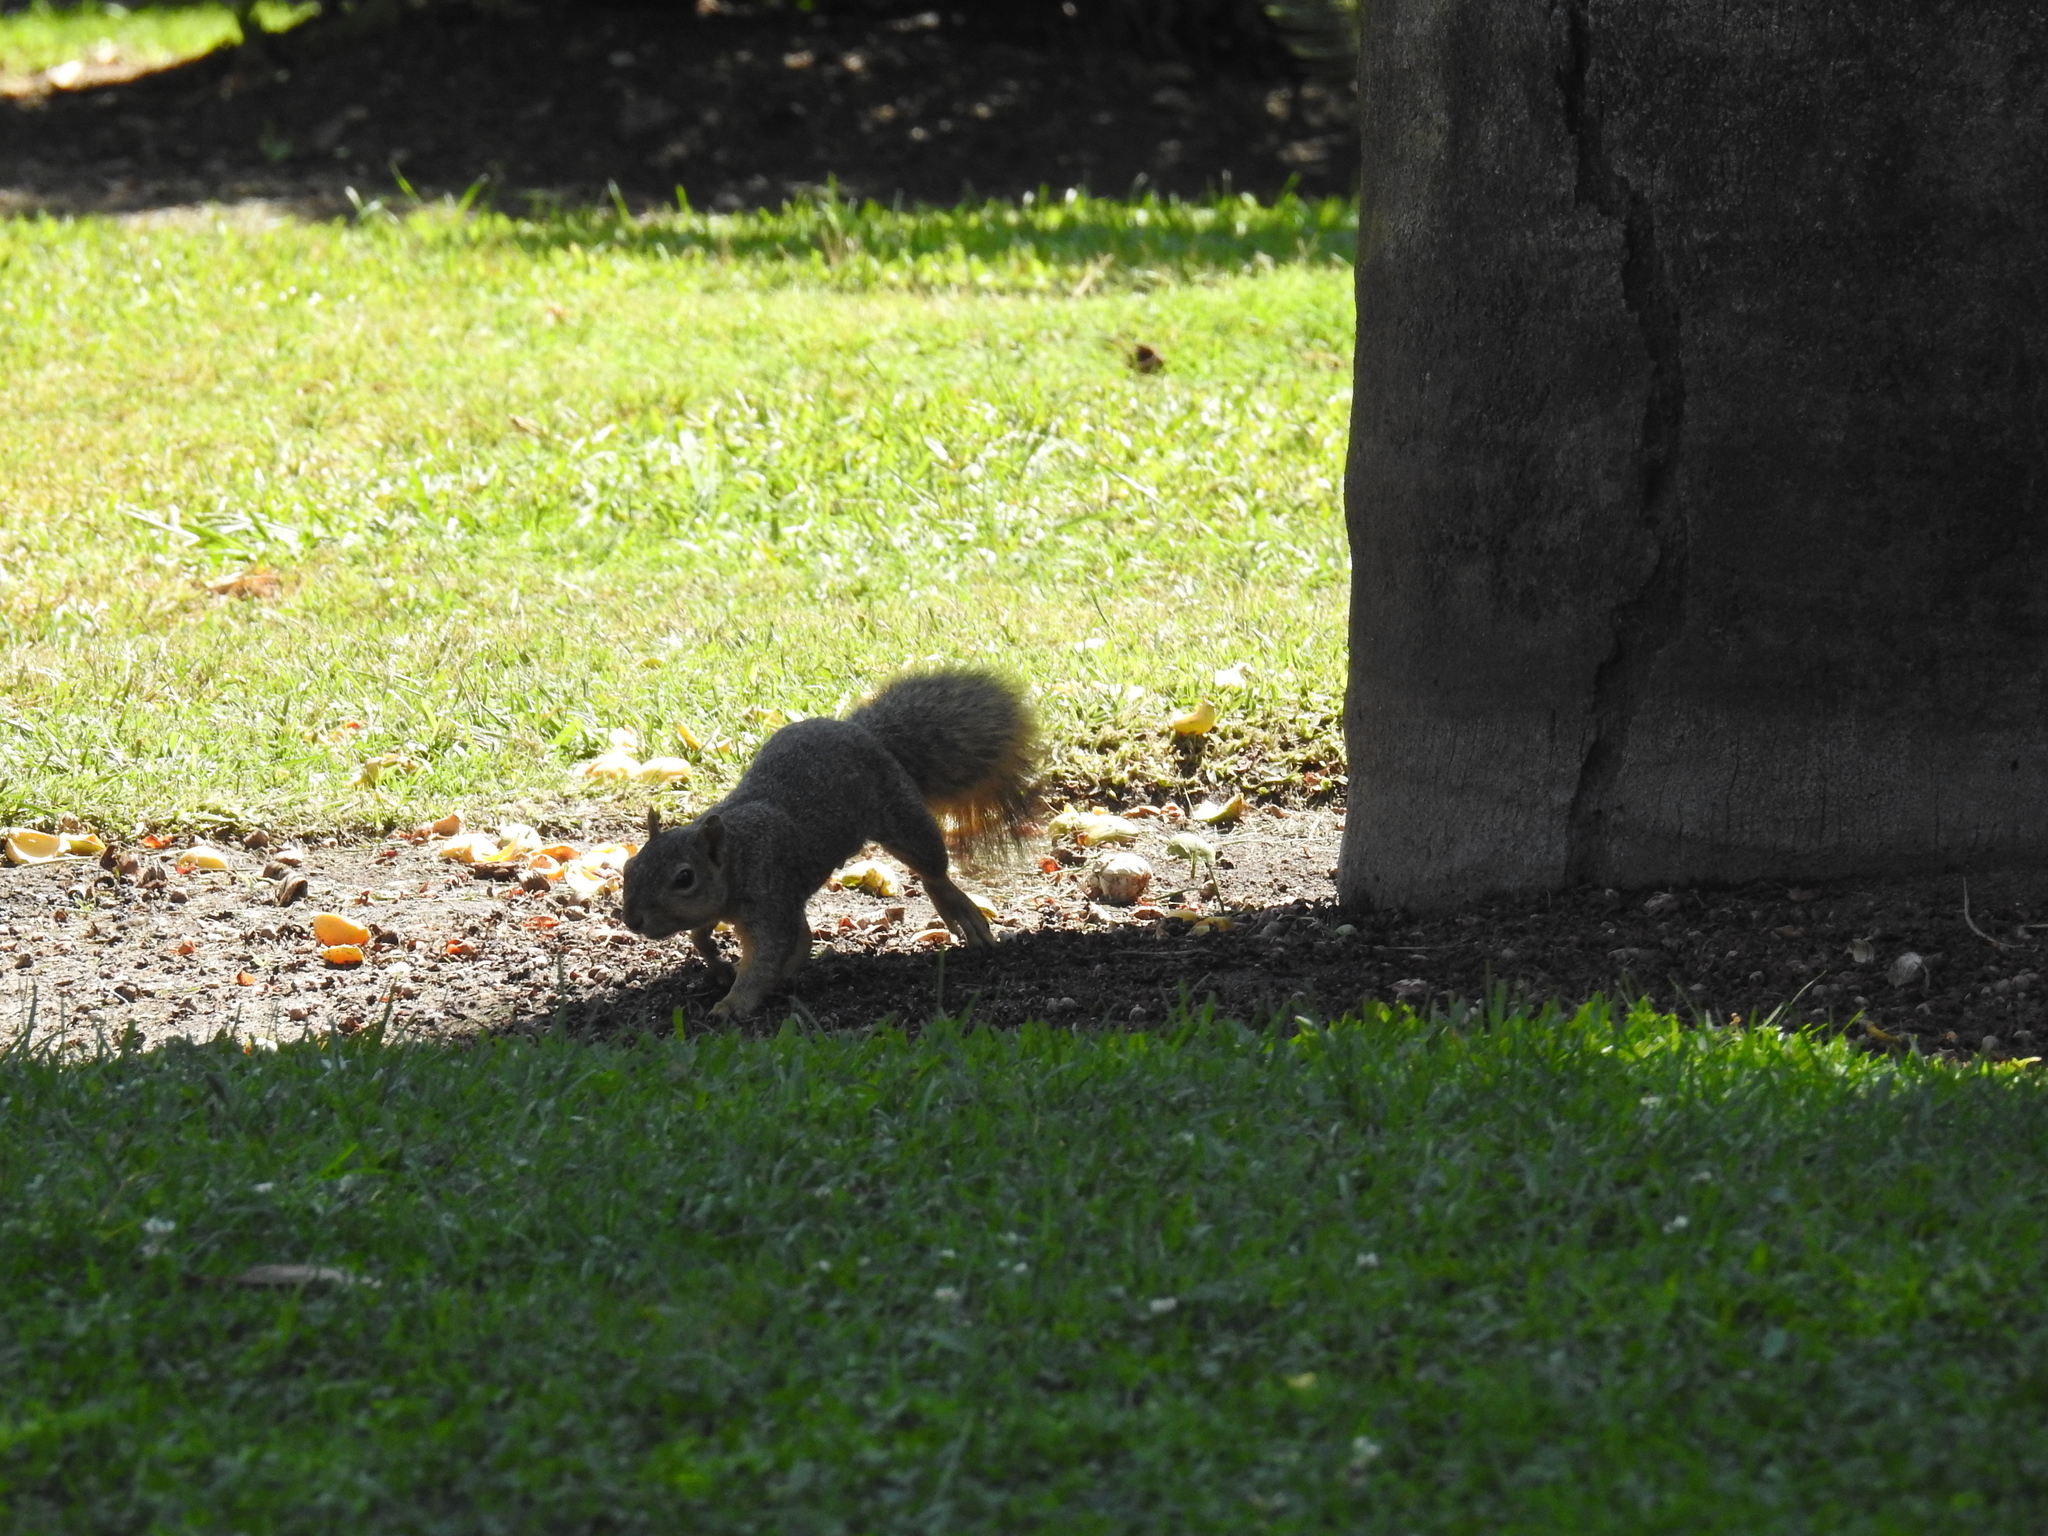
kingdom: Animalia
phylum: Chordata
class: Mammalia
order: Rodentia
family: Sciuridae
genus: Sciurus
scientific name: Sciurus niger
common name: Fox squirrel
